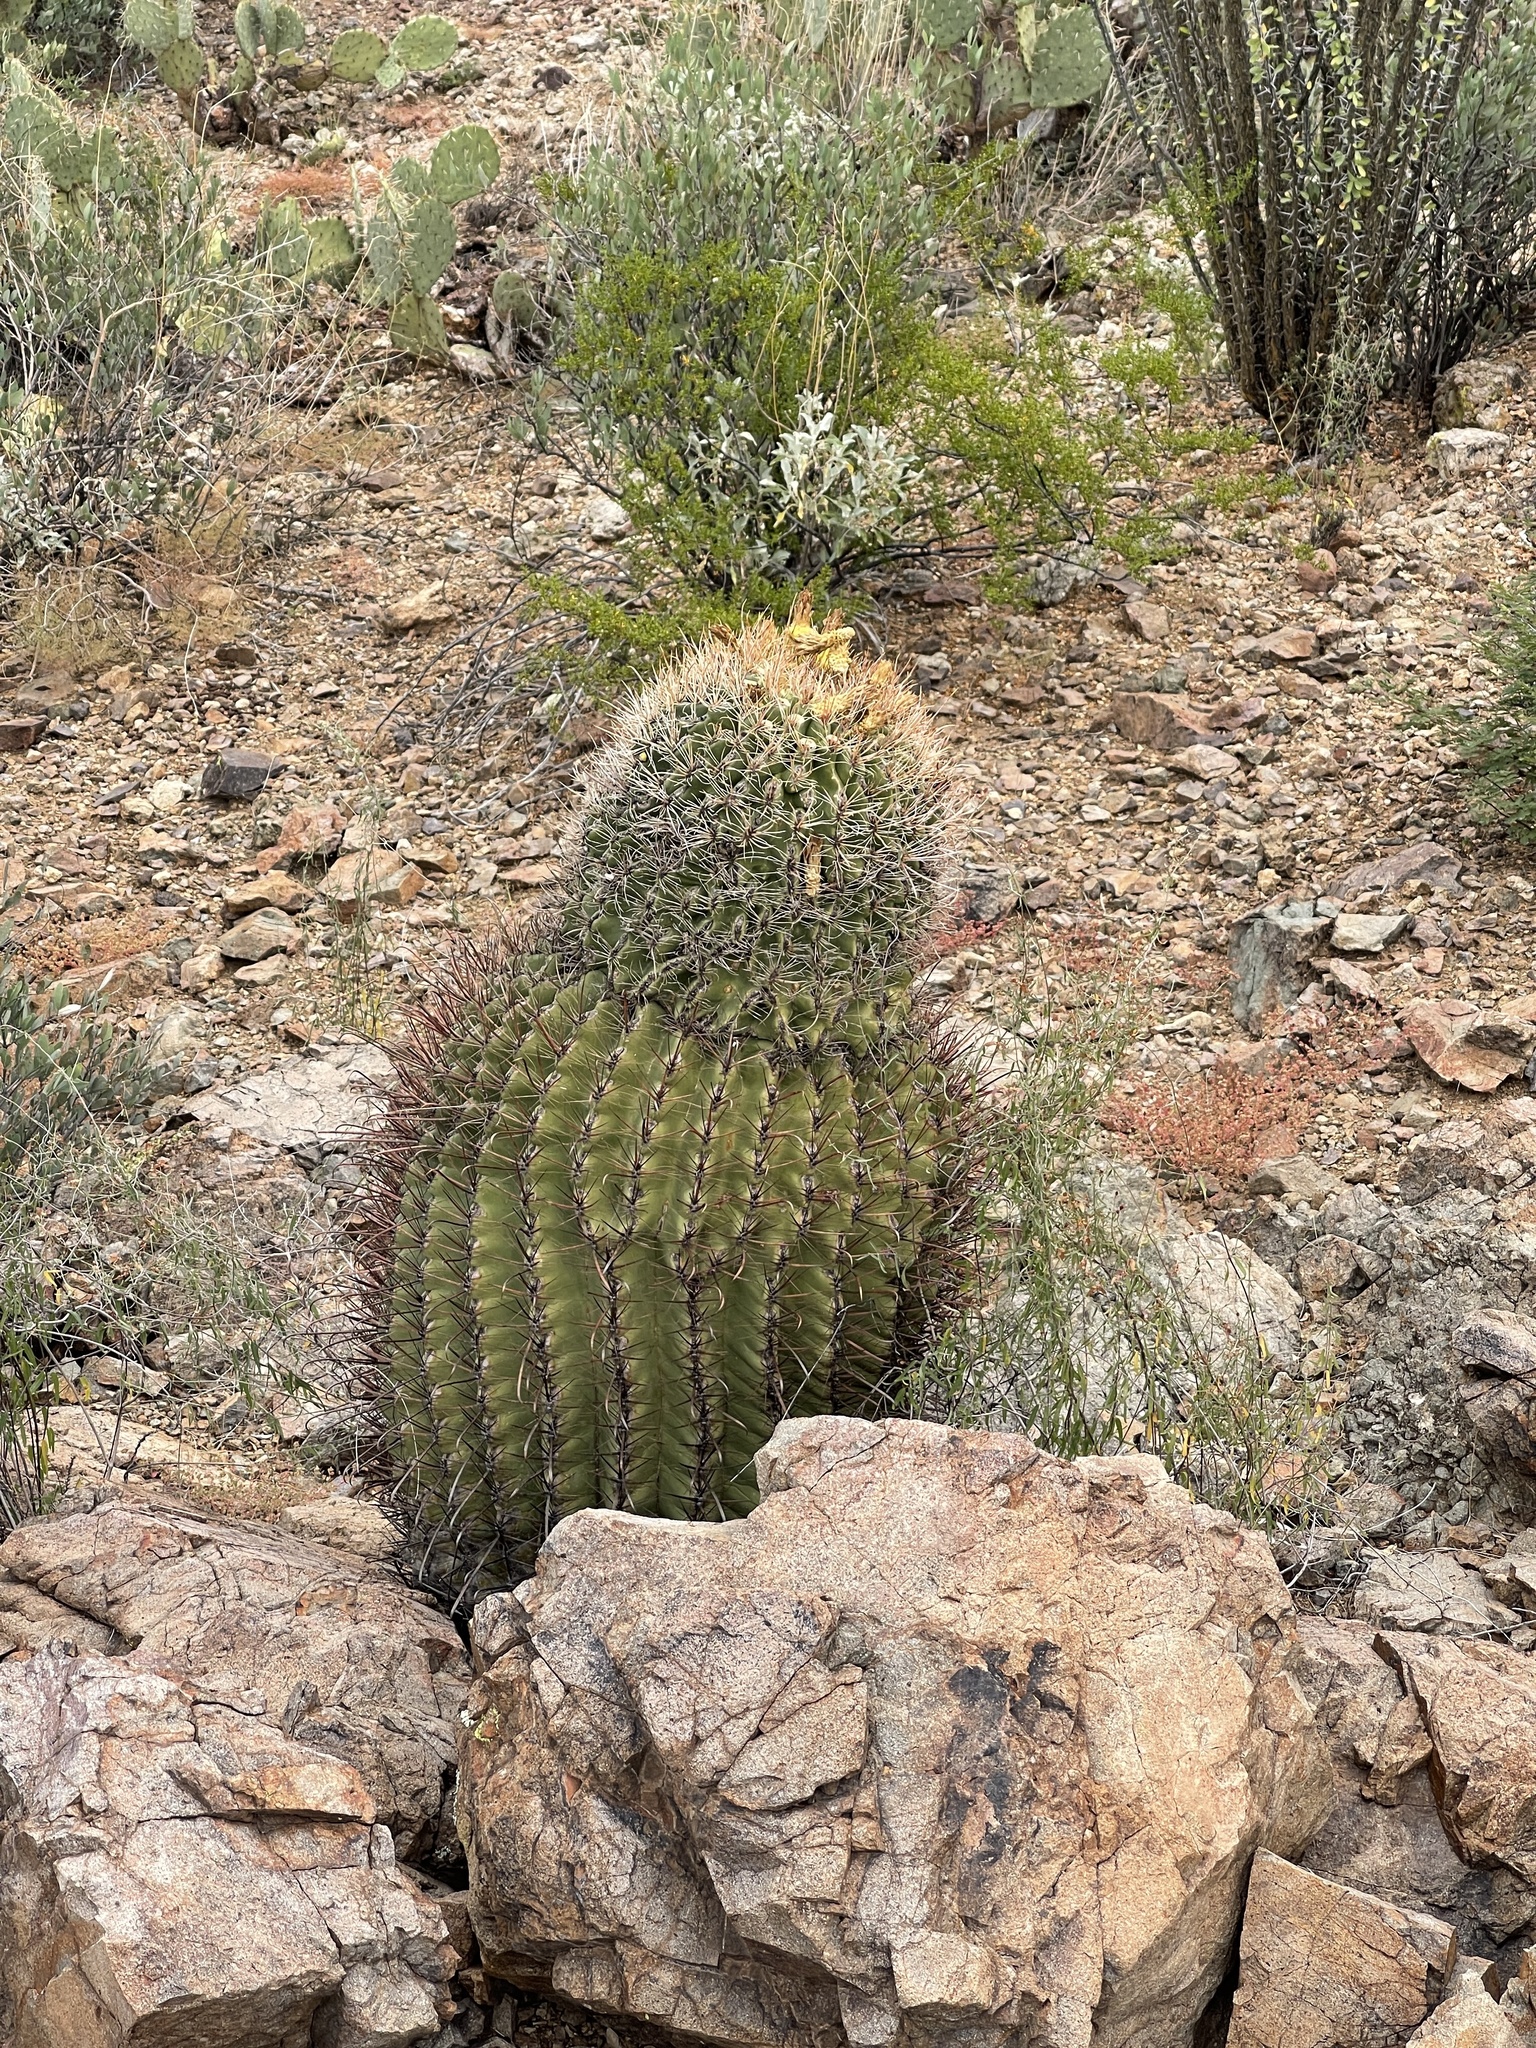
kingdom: Plantae
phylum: Tracheophyta
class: Magnoliopsida
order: Caryophyllales
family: Cactaceae
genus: Ferocactus
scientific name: Ferocactus wislizeni
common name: Candy barrel cactus
